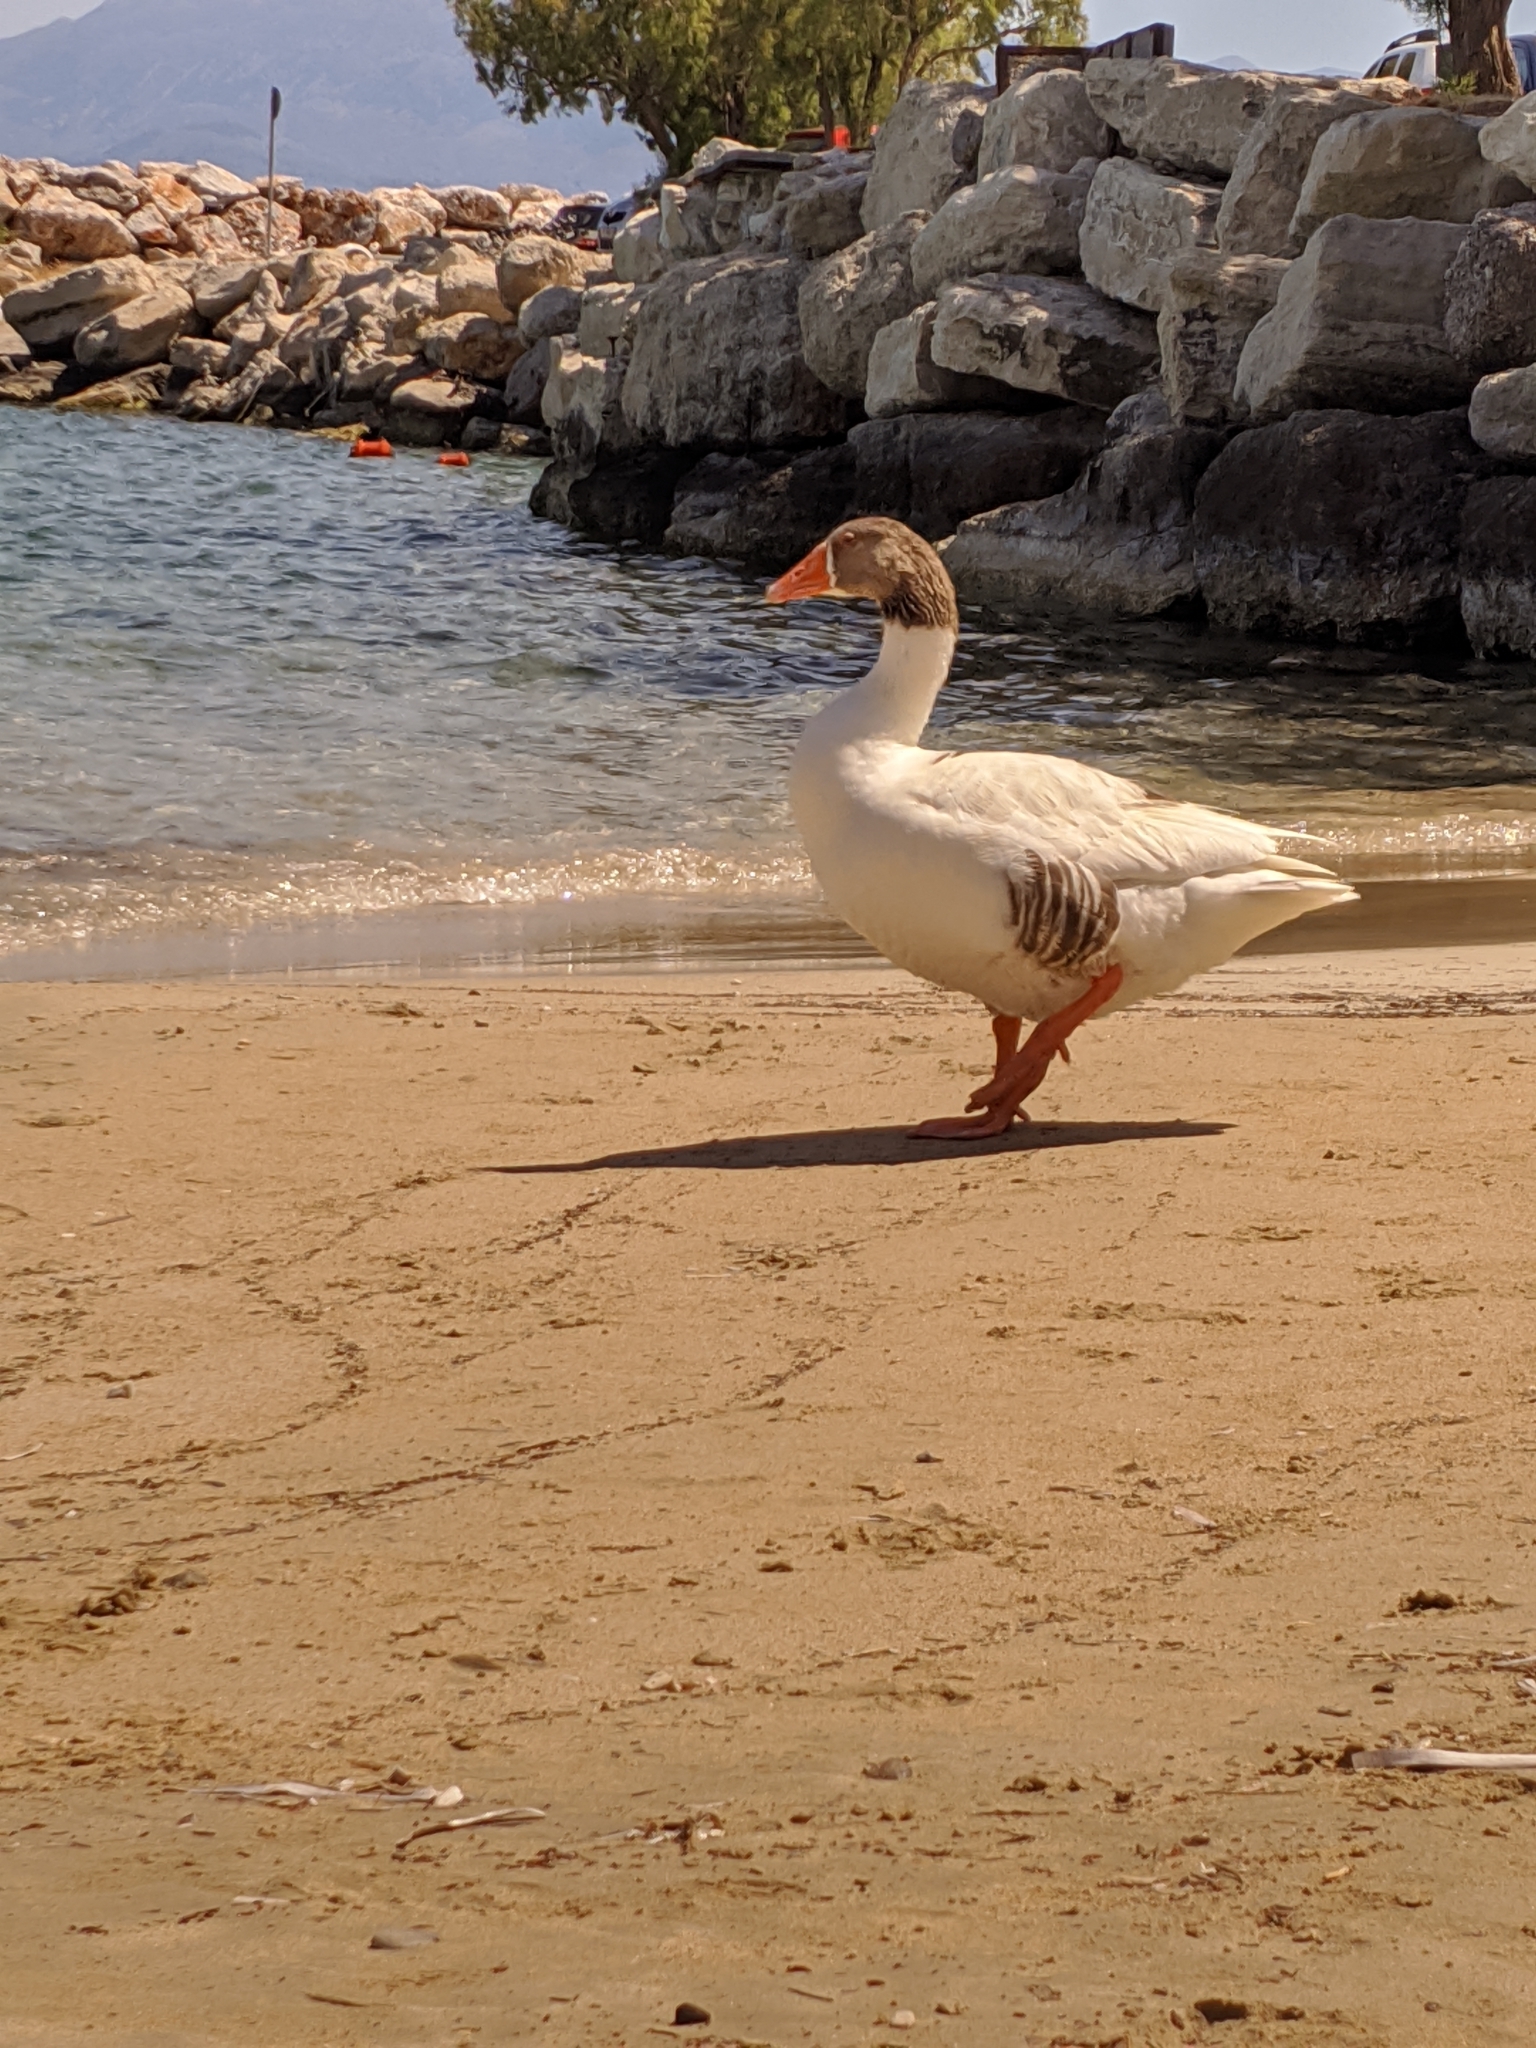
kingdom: Animalia
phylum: Chordata
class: Aves
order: Anseriformes
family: Anatidae
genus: Anser
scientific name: Anser anser
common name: Greylag goose
